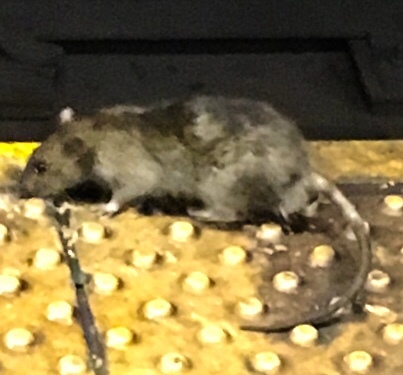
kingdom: Animalia
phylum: Chordata
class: Mammalia
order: Rodentia
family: Muridae
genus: Rattus
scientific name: Rattus norvegicus
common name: Brown rat
